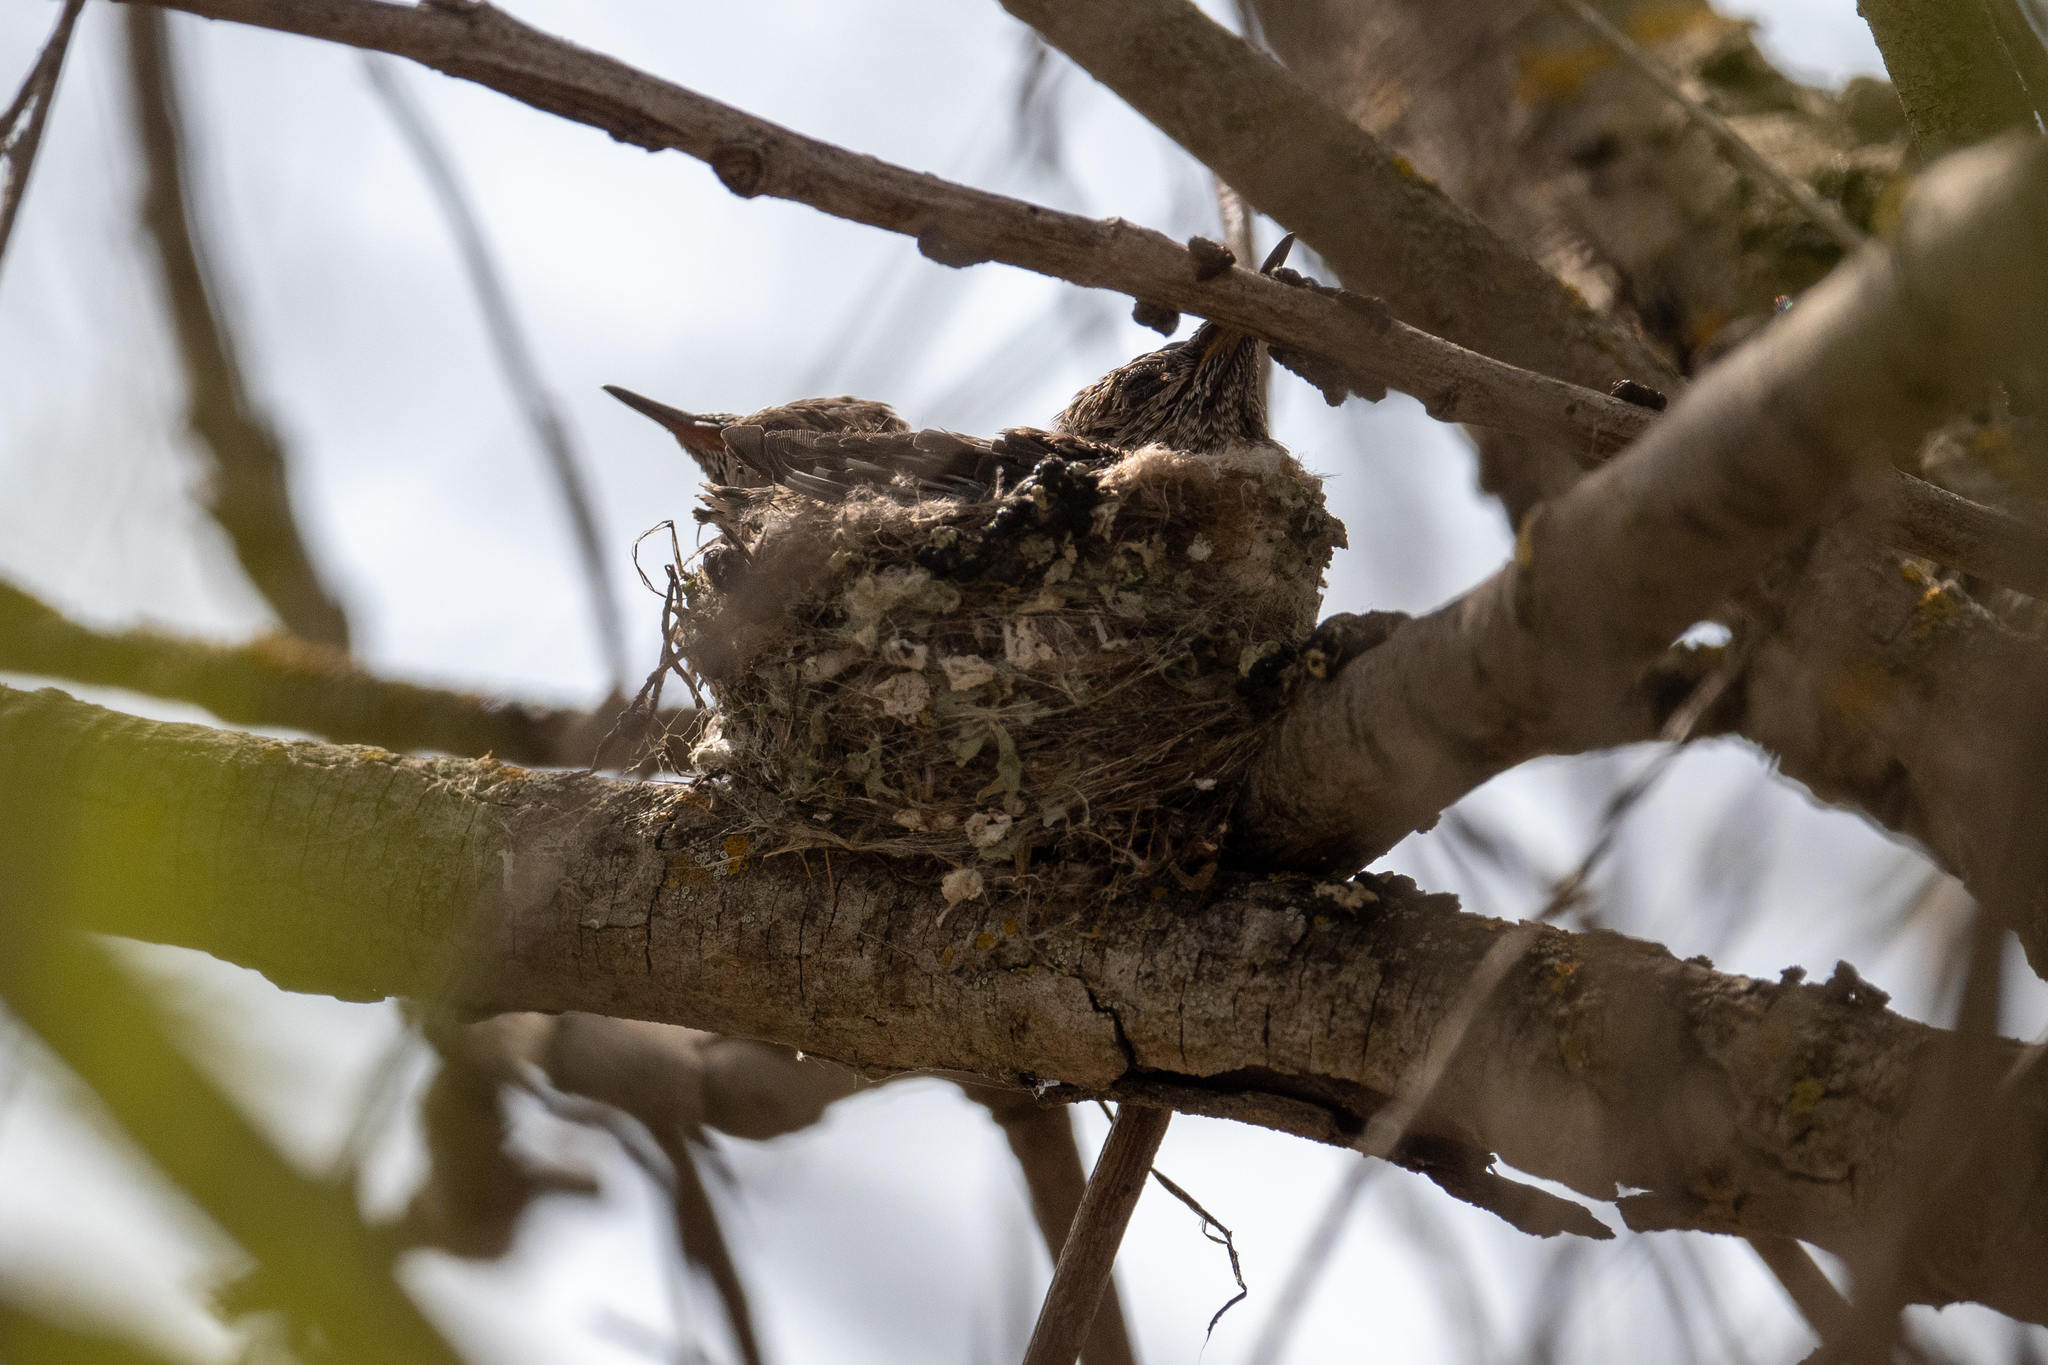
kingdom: Animalia
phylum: Chordata
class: Aves
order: Apodiformes
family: Trochilidae
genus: Calypte
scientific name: Calypte anna
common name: Anna's hummingbird
